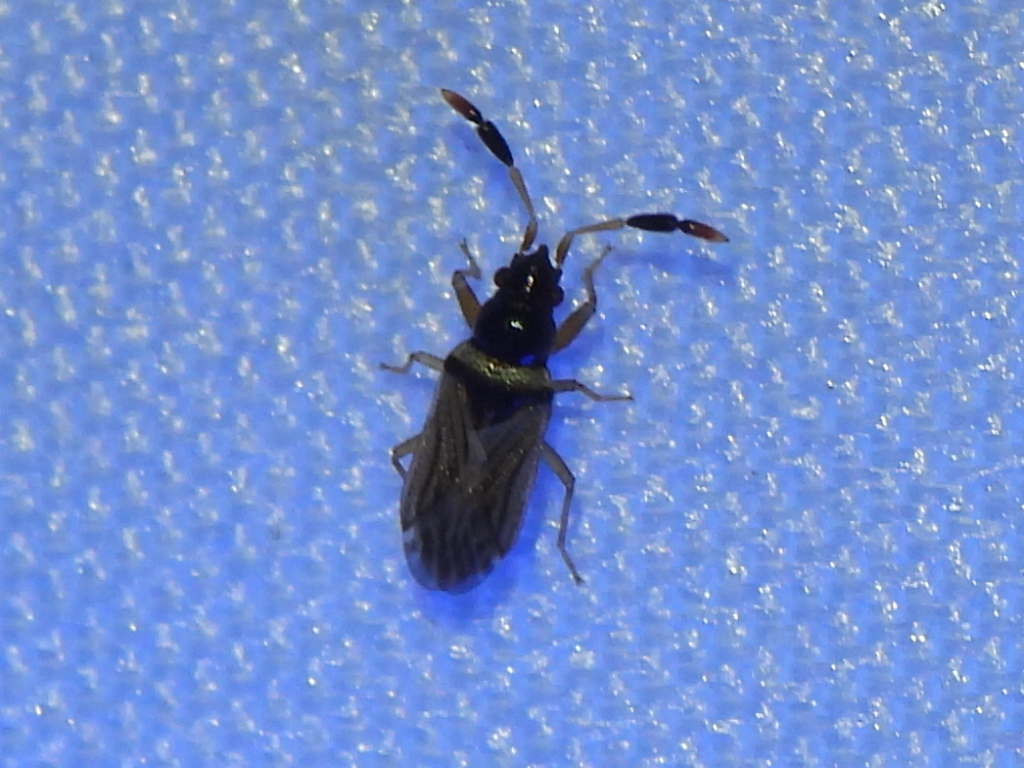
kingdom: Animalia
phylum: Arthropoda
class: Insecta
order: Hemiptera
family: Rhyparochromidae
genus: Ptochiomera
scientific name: Ptochiomera nodosa
